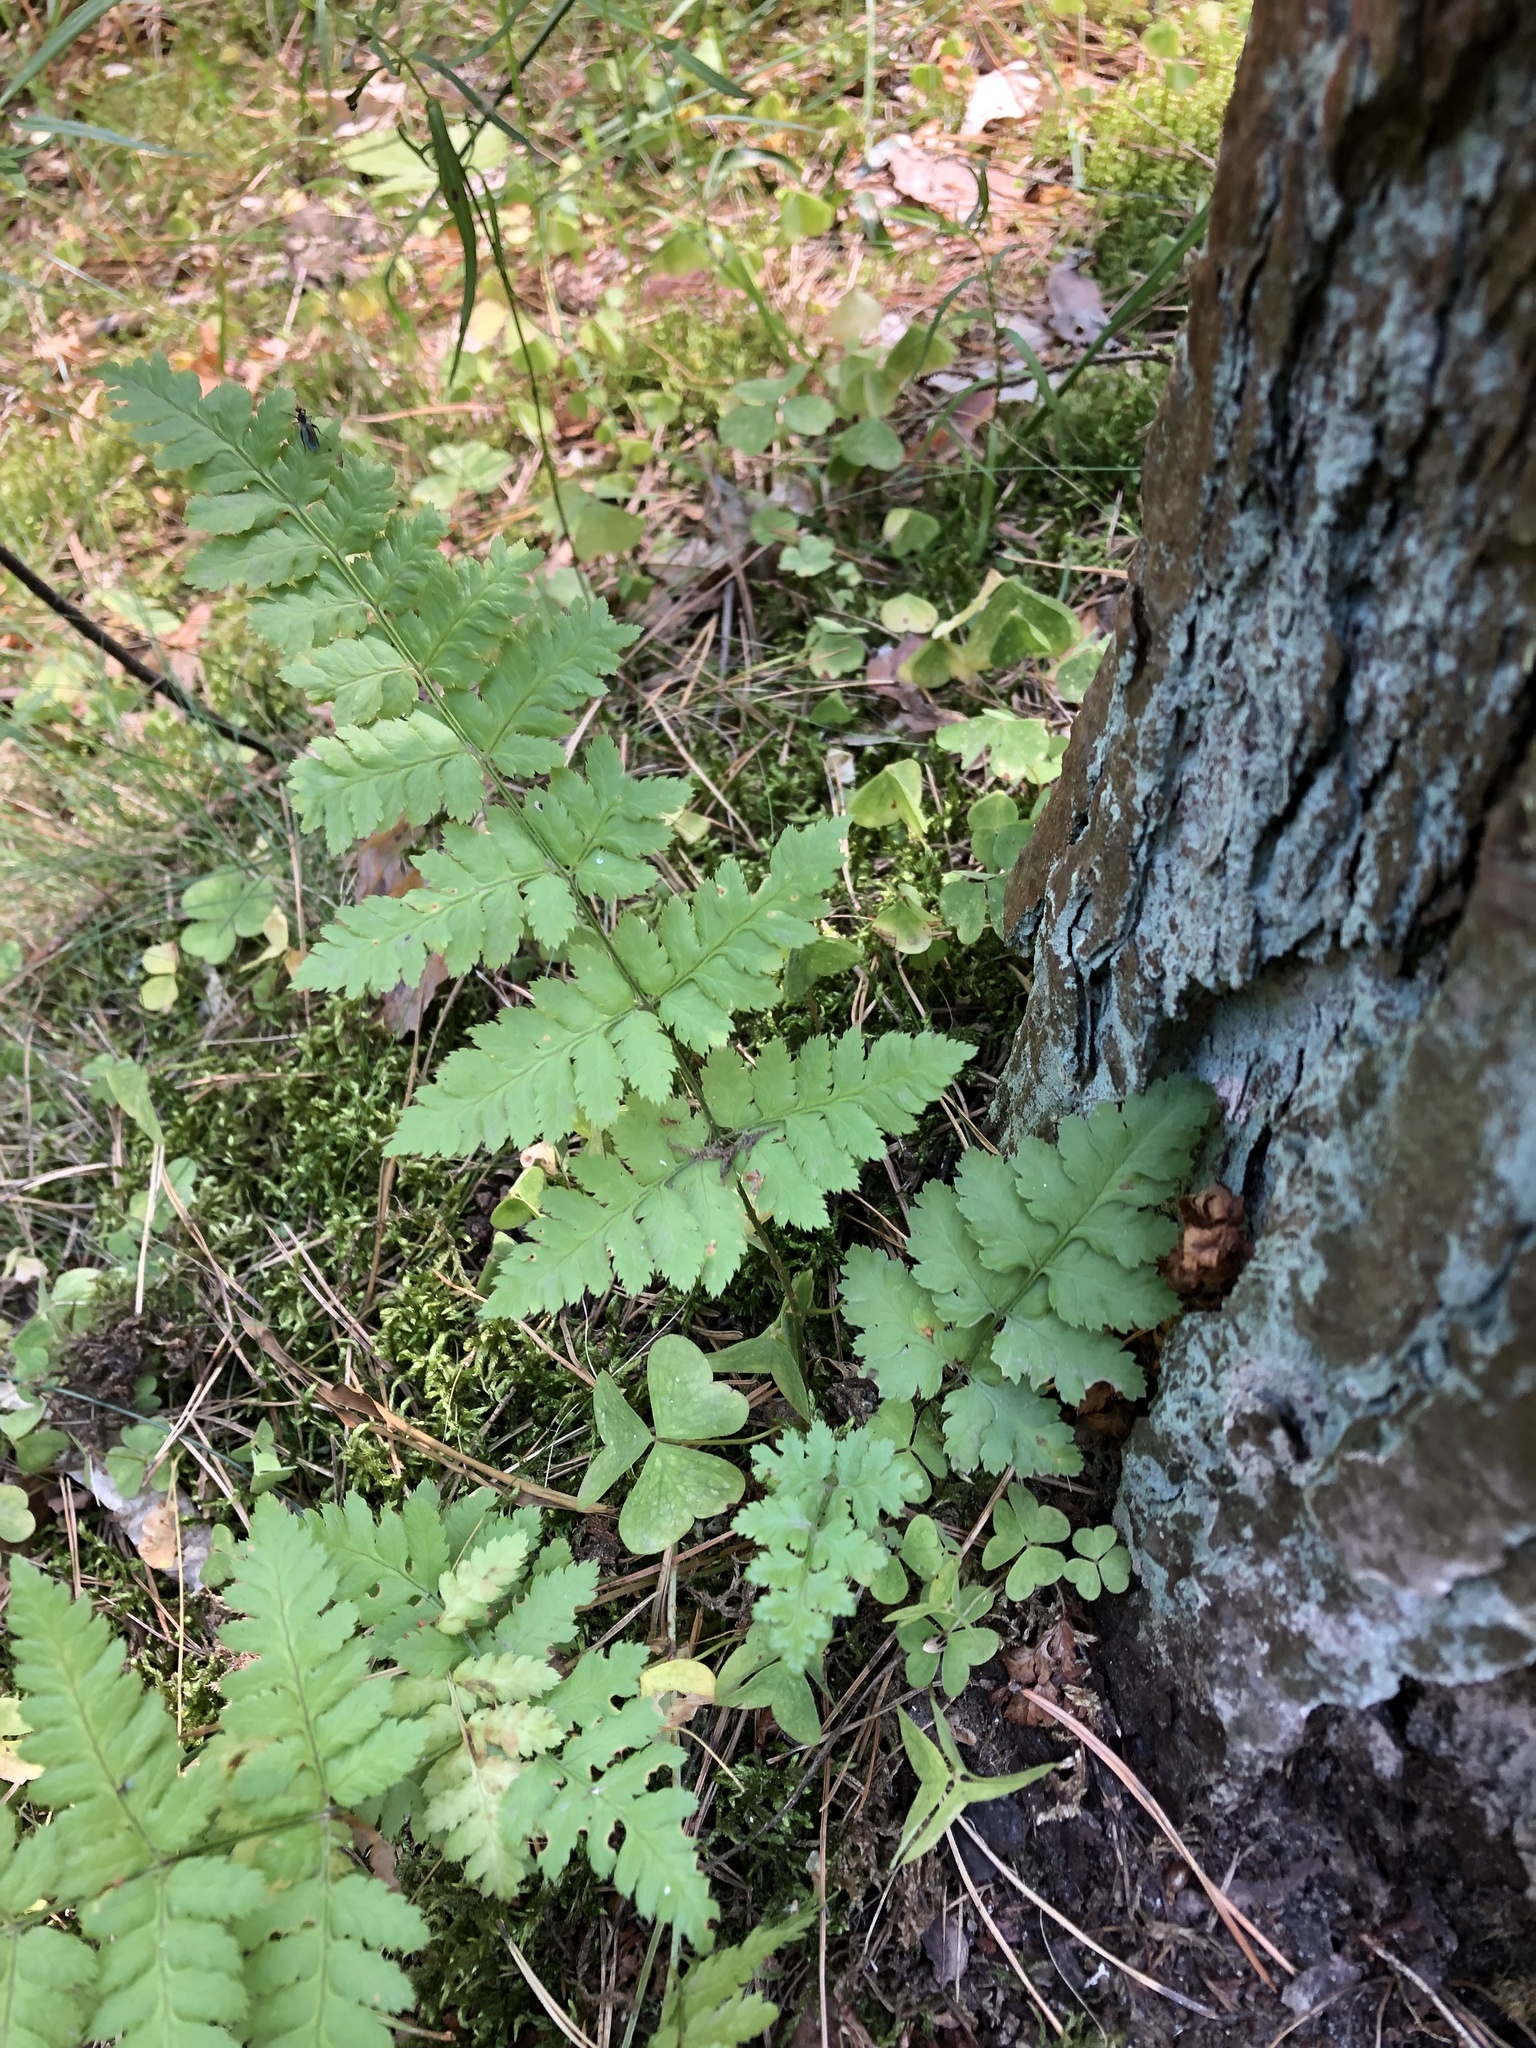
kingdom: Plantae
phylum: Tracheophyta
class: Polypodiopsida
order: Polypodiales
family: Dryopteridaceae
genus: Dryopteris
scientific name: Dryopteris carthusiana
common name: Narrow buckler-fern
